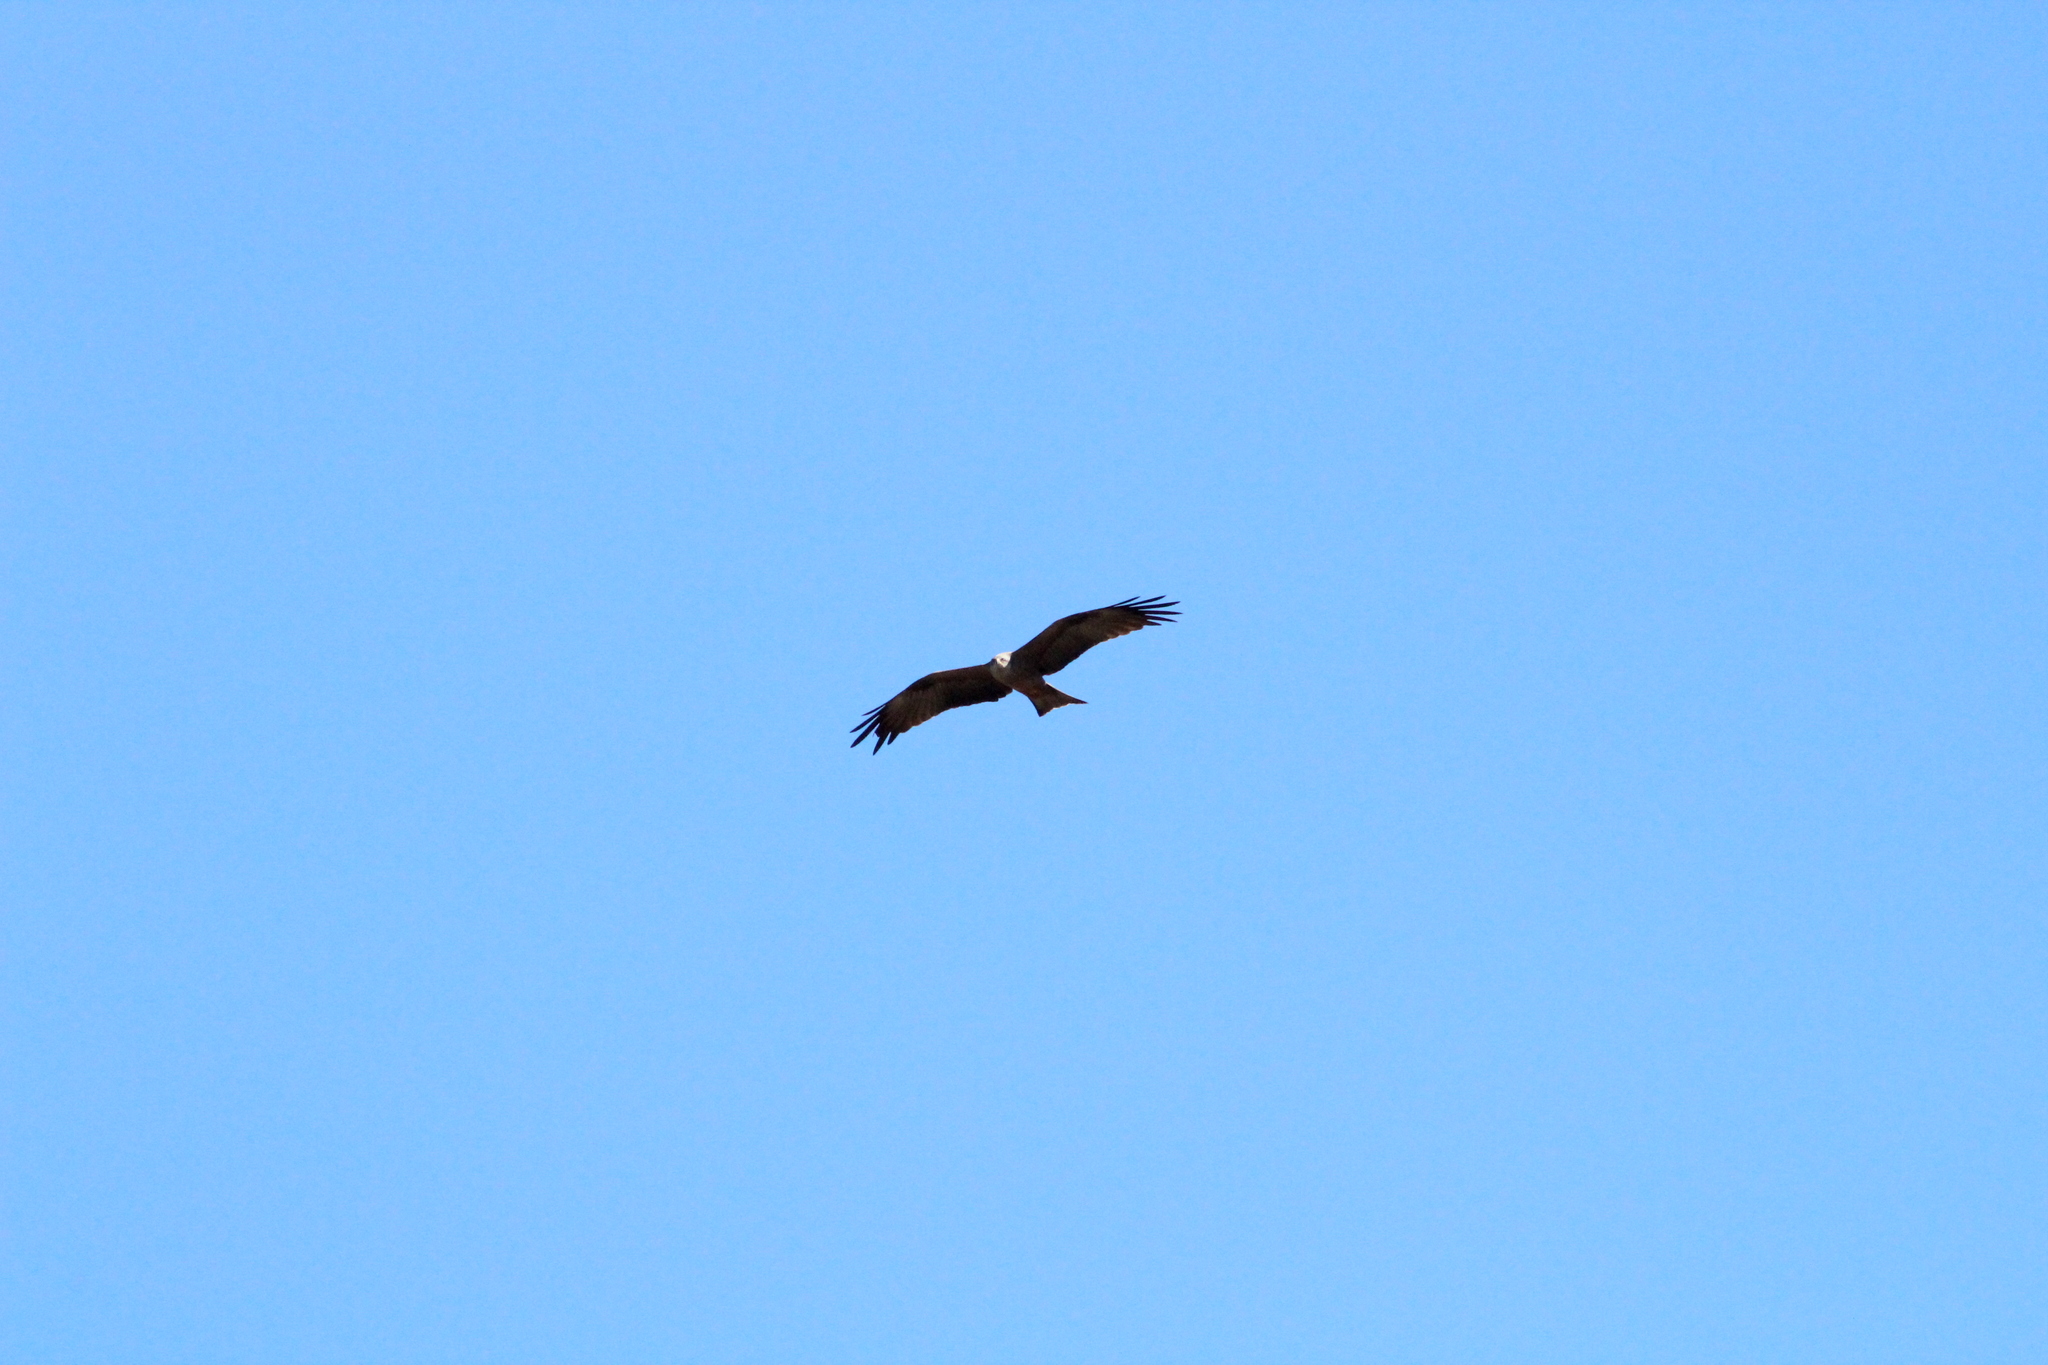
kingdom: Animalia
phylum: Chordata
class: Aves
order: Accipitriformes
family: Accipitridae
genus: Milvus
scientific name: Milvus milvus
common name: Red kite
